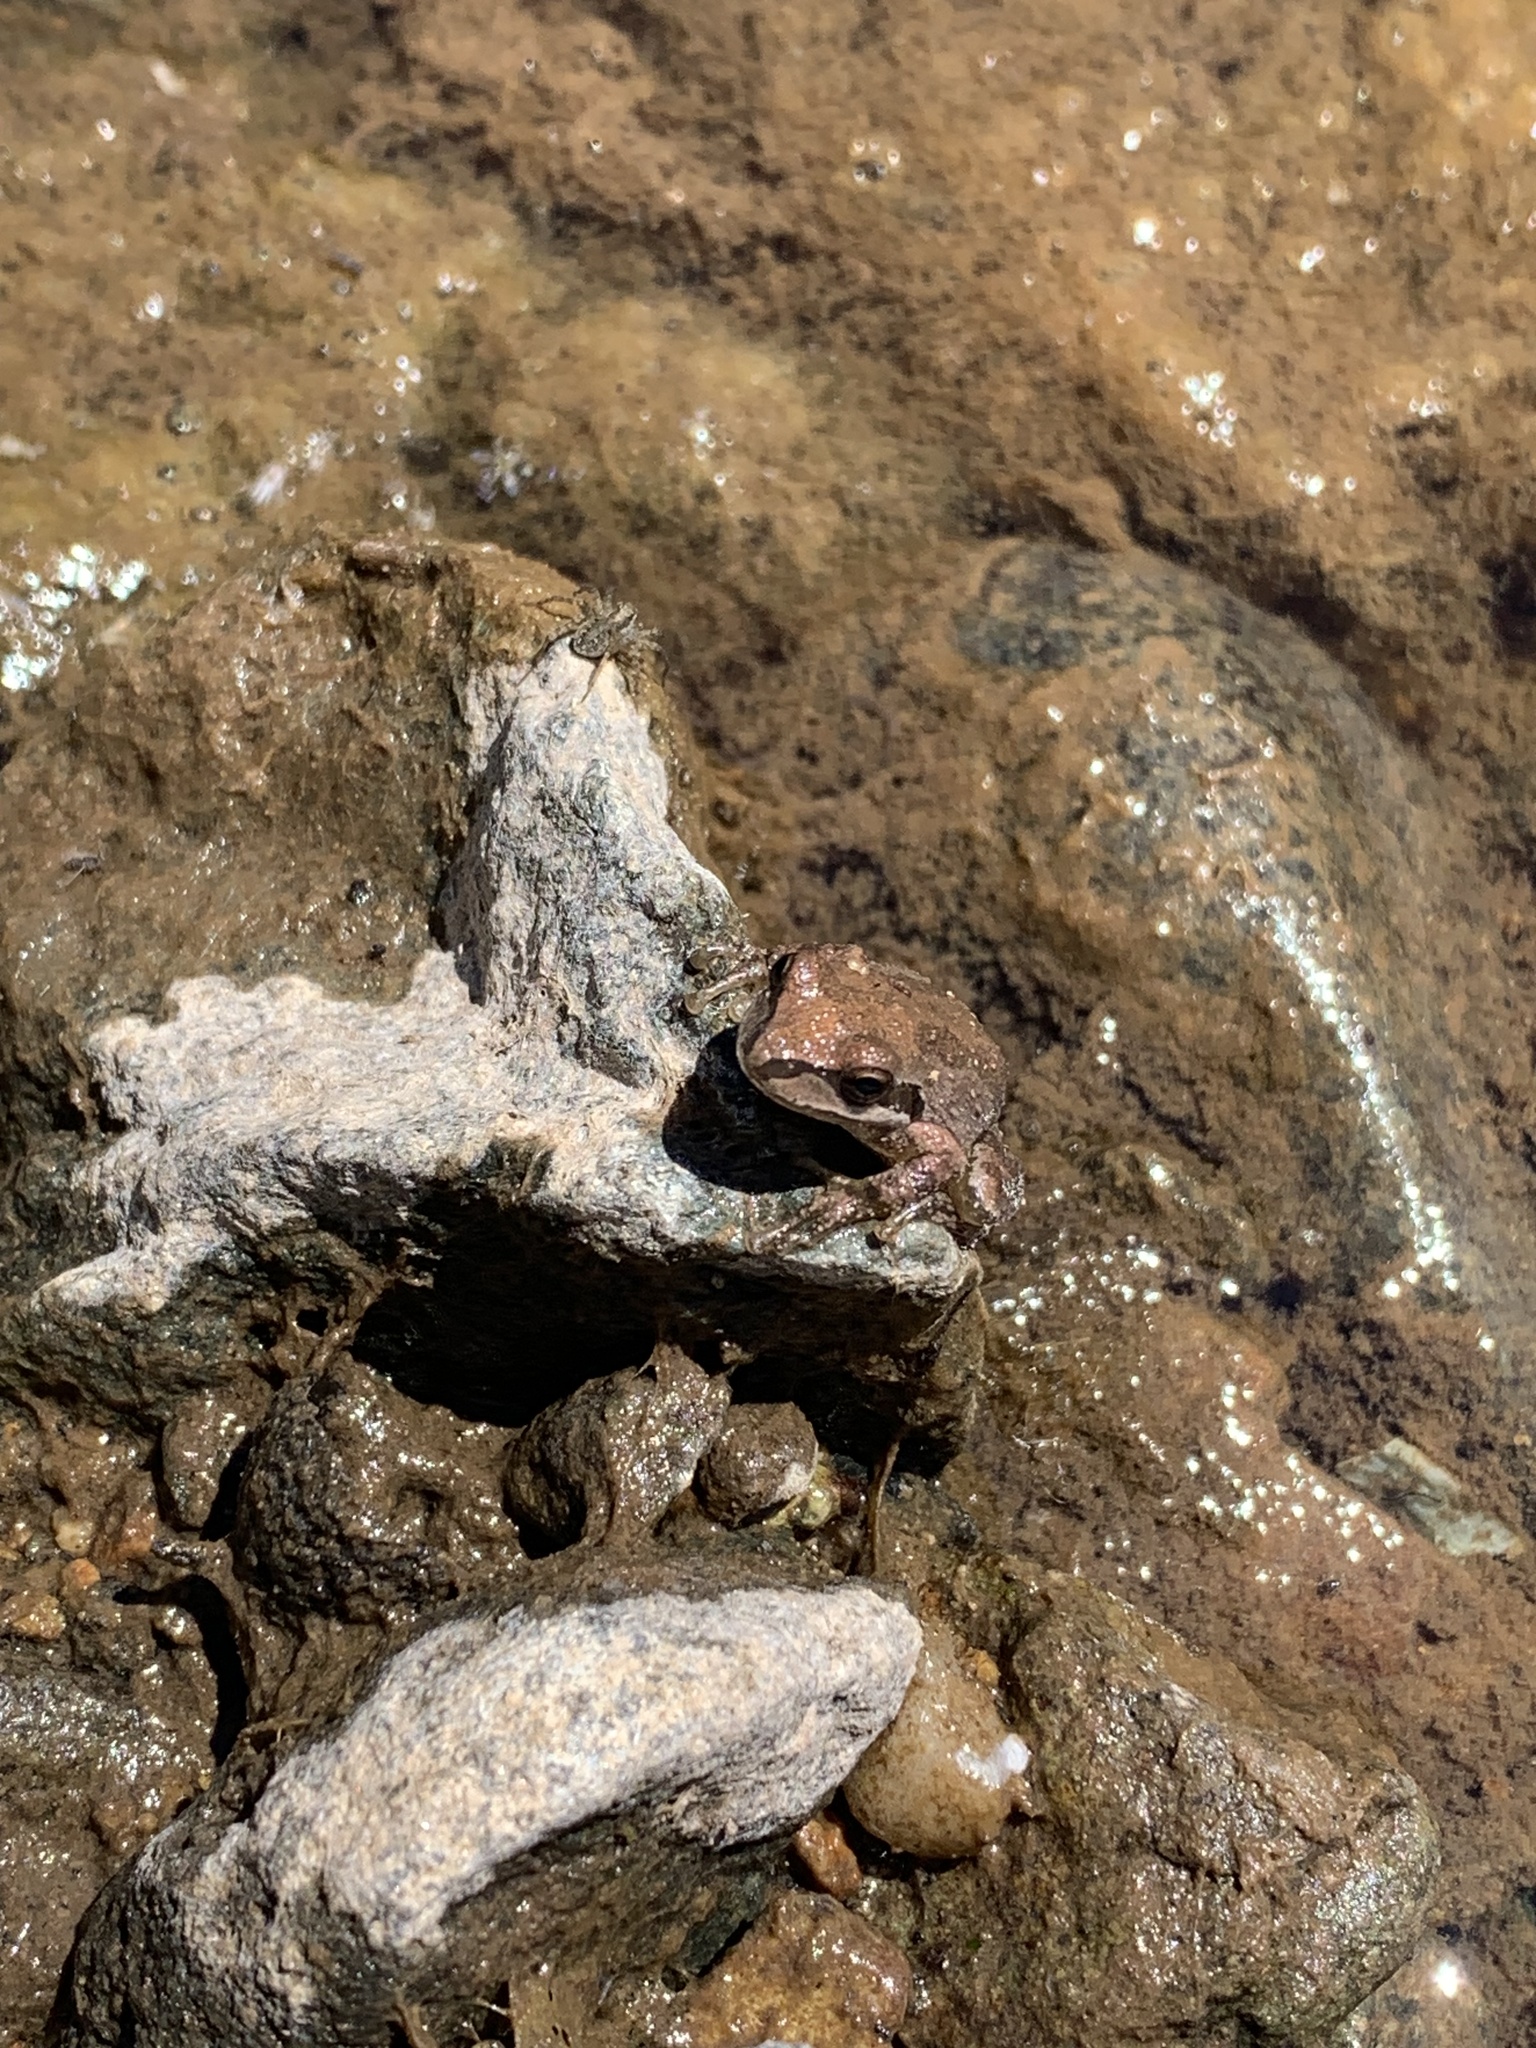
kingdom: Animalia
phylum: Chordata
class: Amphibia
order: Anura
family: Hylidae
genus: Pseudacris
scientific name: Pseudacris regilla
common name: Pacific chorus frog
